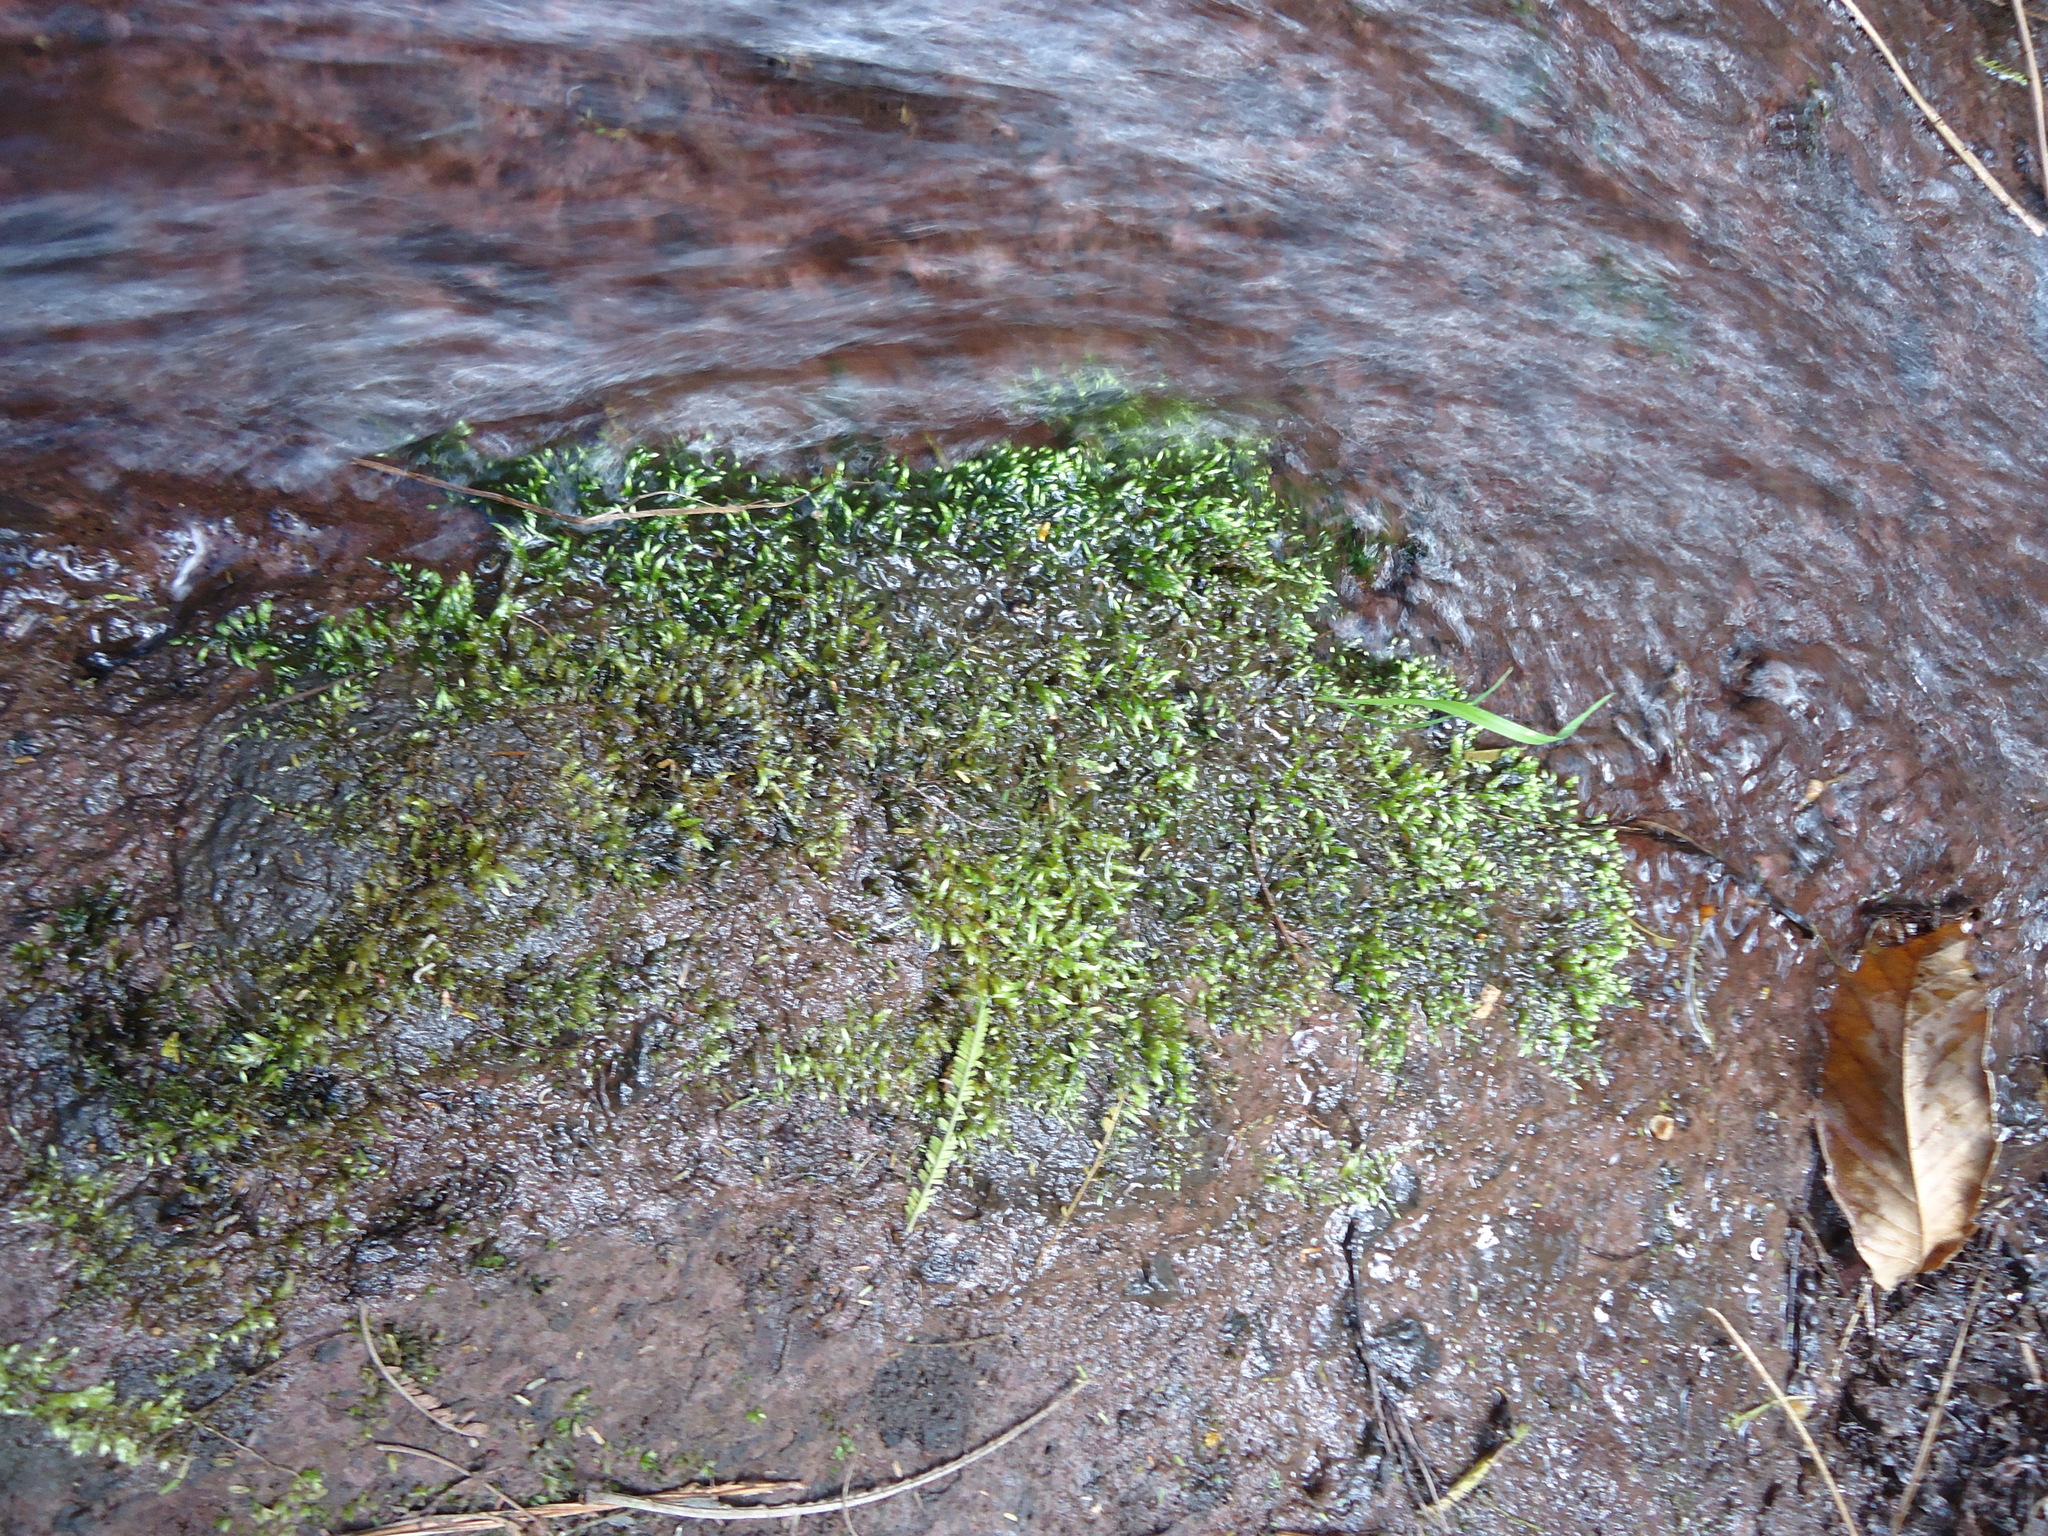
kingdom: Plantae
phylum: Bryophyta
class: Bryopsida
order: Hypnales
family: Brachytheciaceae
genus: Brachythecium
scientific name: Brachythecium rivulare
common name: River ragged moss
